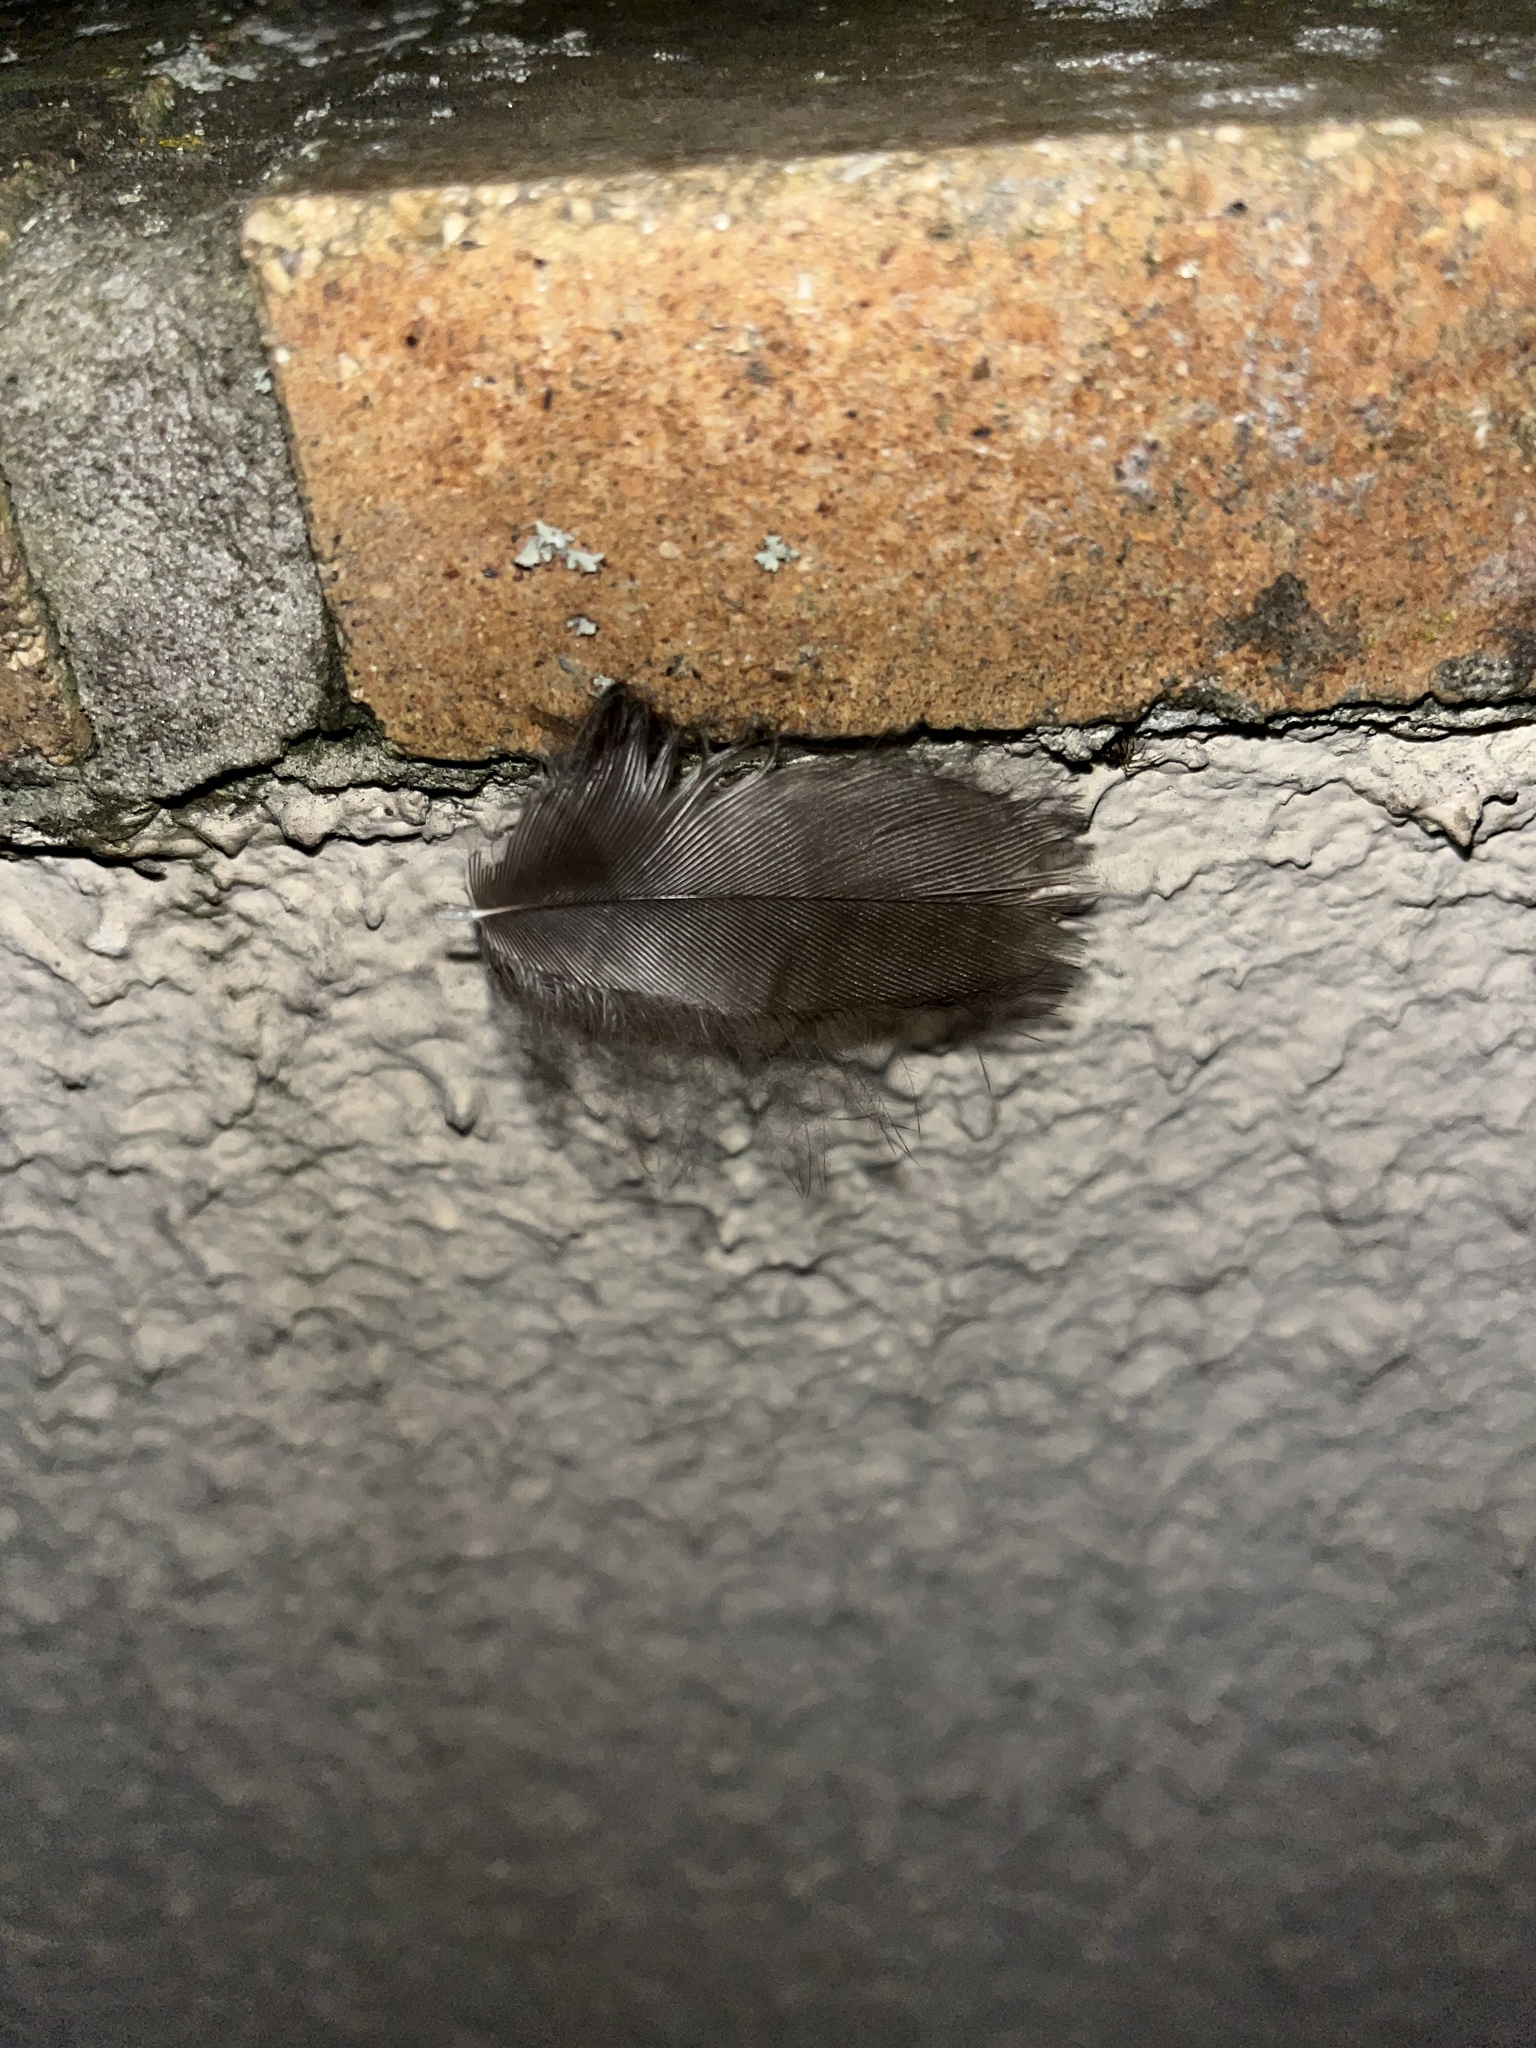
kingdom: Animalia
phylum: Chordata
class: Aves
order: Passeriformes
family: Turdidae
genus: Turdus
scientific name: Turdus merula
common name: Common blackbird
